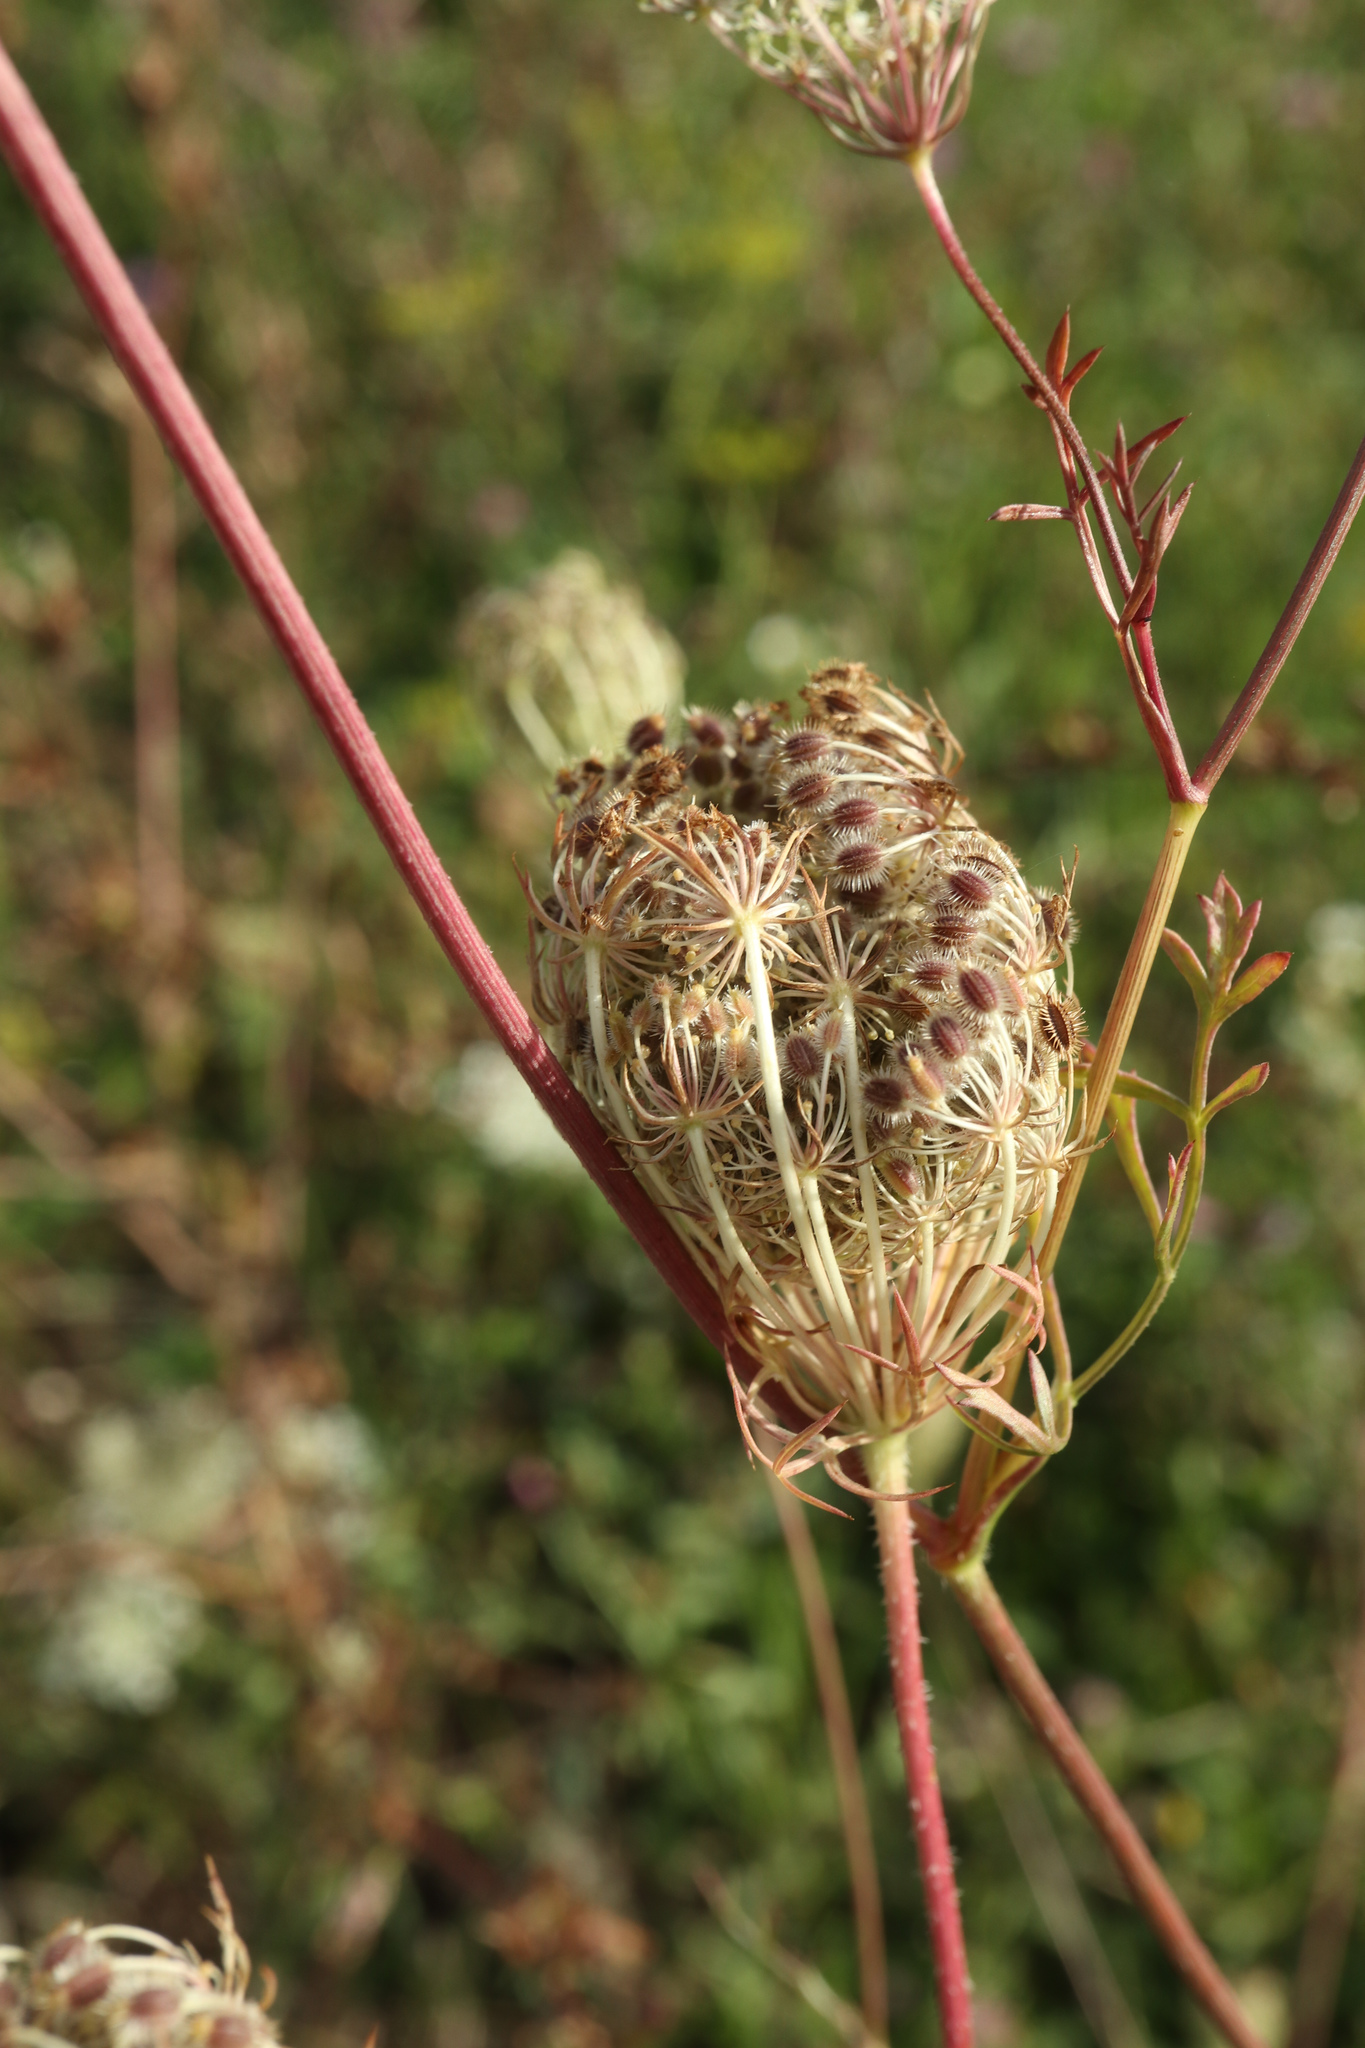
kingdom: Plantae
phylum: Tracheophyta
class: Magnoliopsida
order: Apiales
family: Apiaceae
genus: Daucus
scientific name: Daucus carota
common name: Wild carrot
